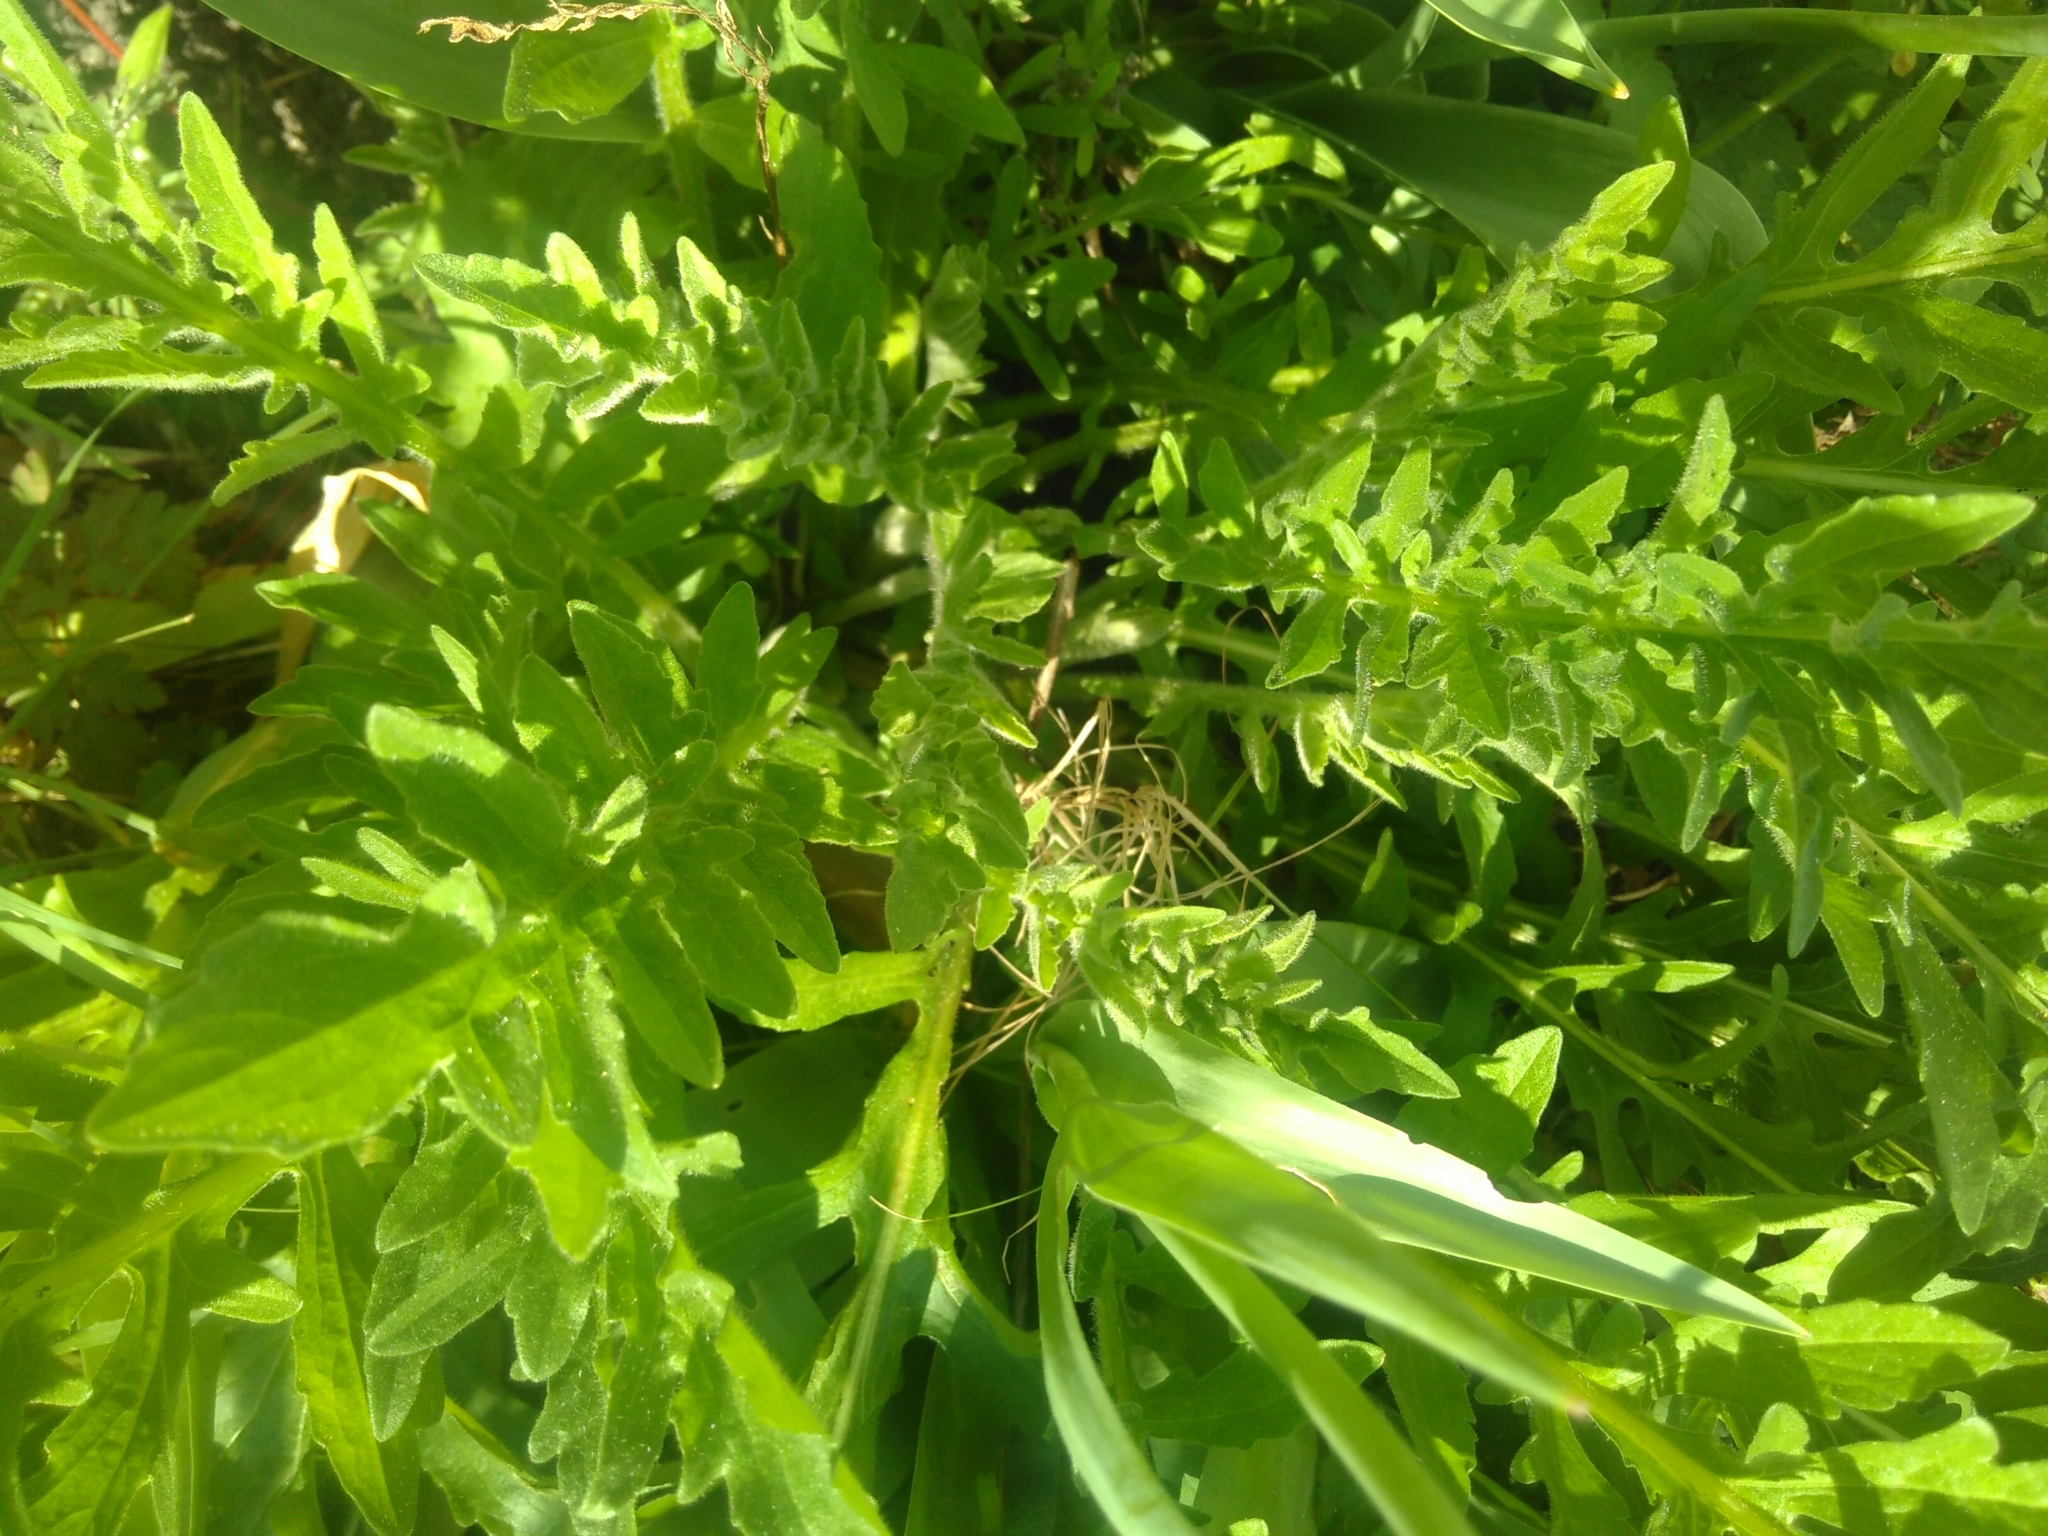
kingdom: Plantae
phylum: Tracheophyta
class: Magnoliopsida
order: Asterales
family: Asteraceae
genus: Centaurea
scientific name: Centaurea scabiosa
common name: Greater knapweed
